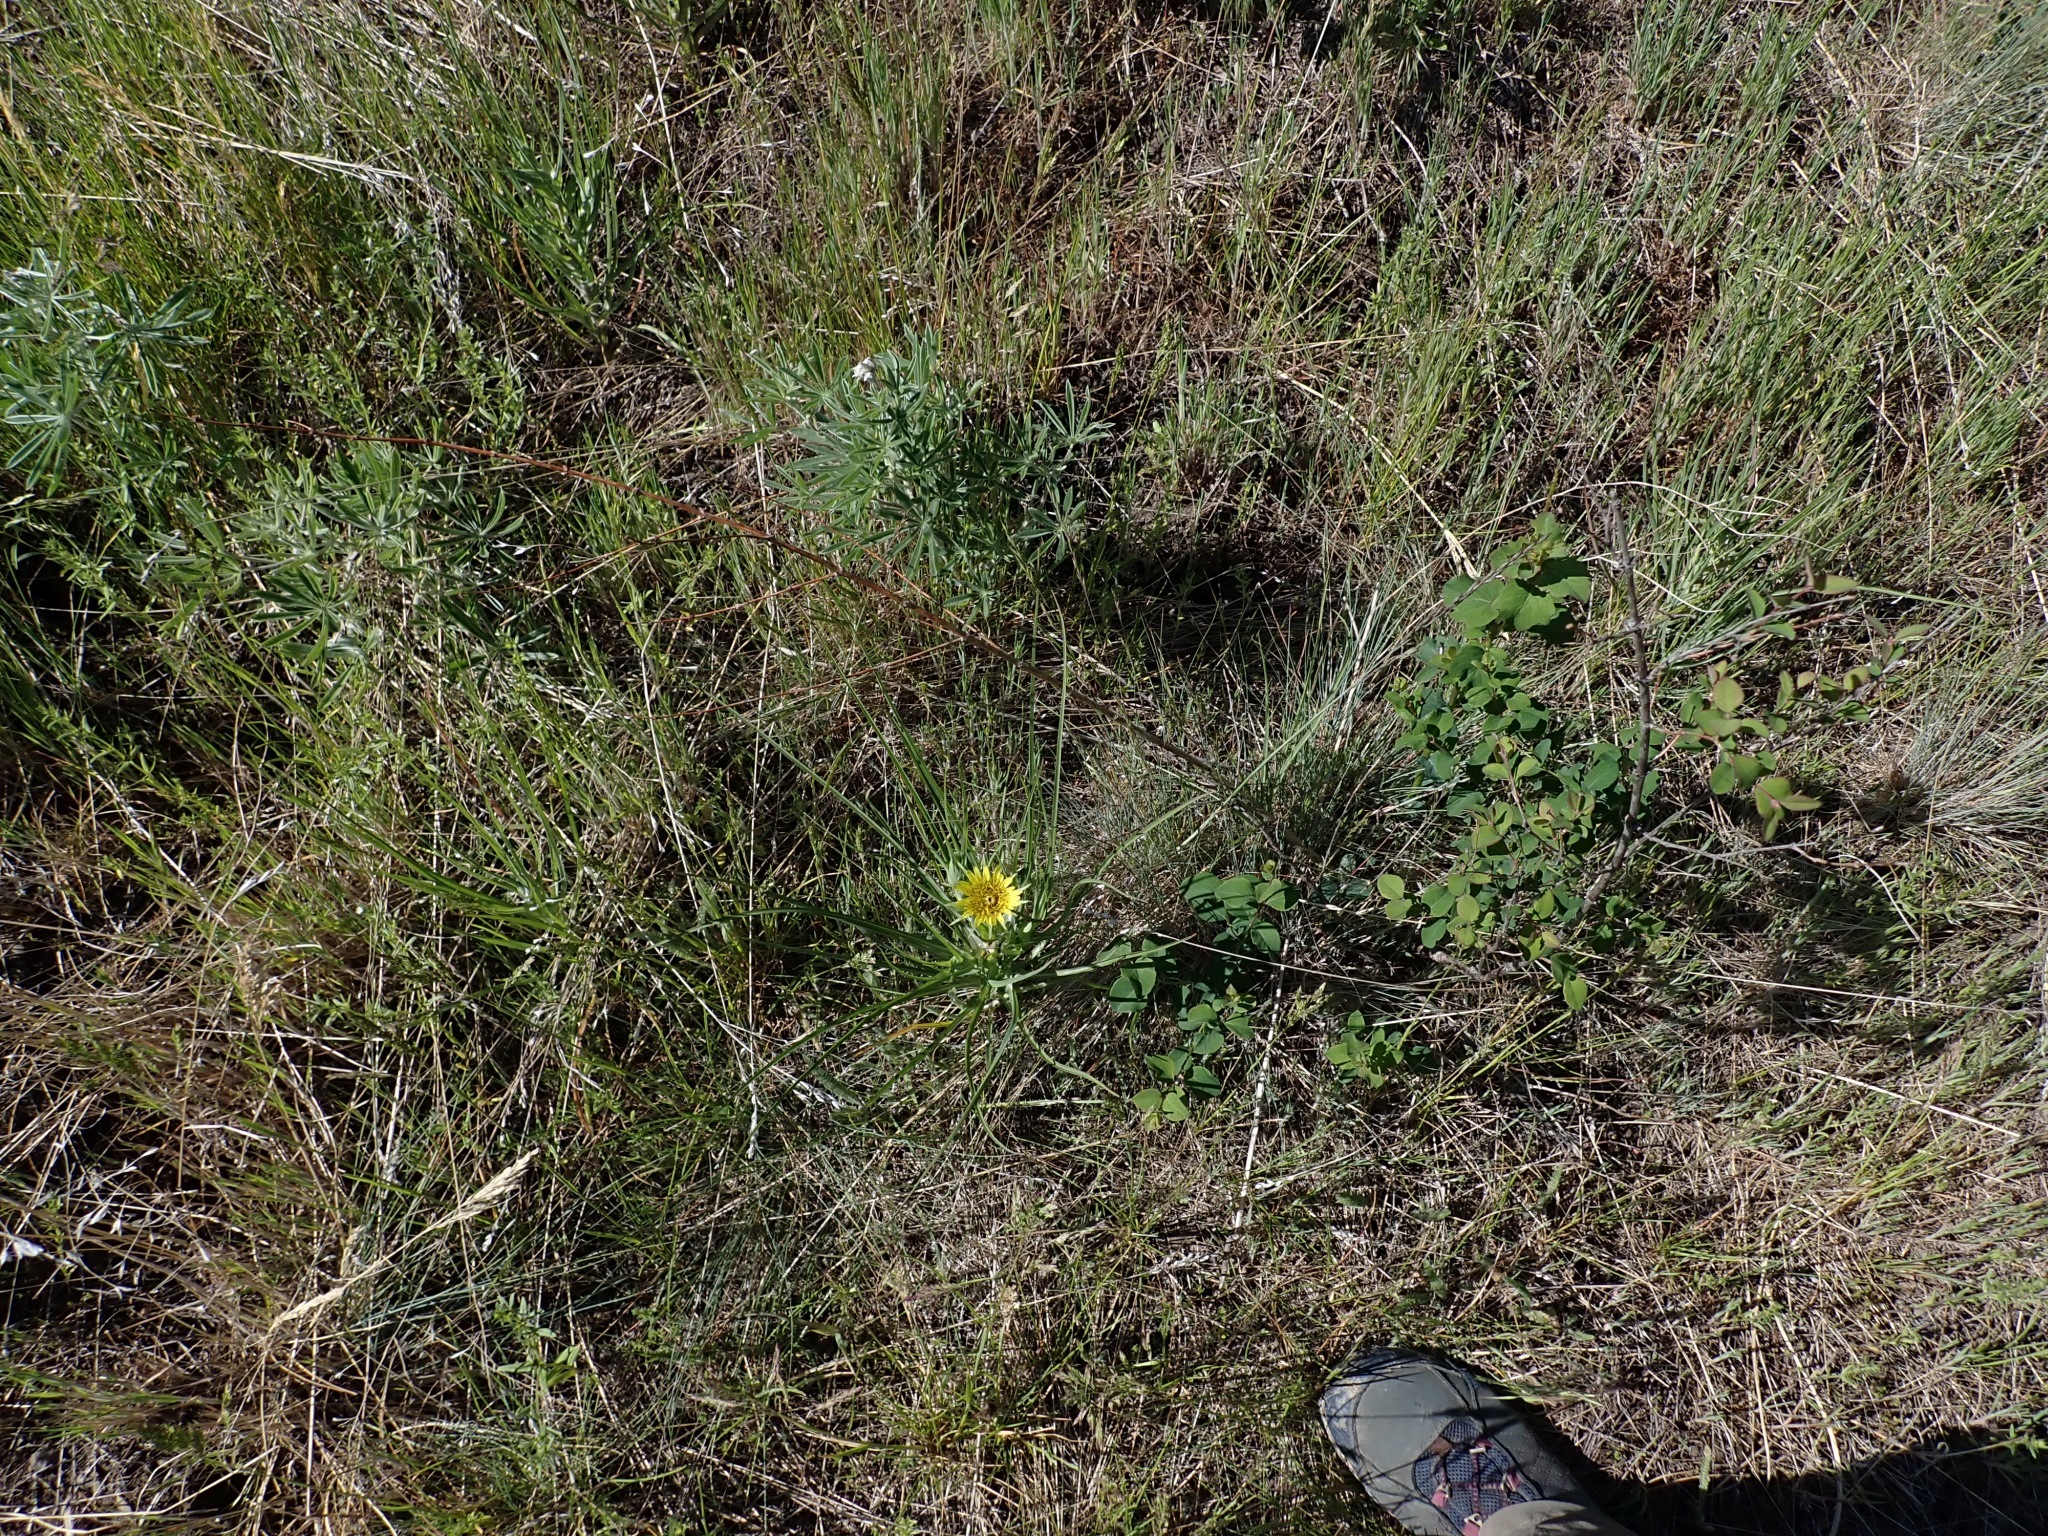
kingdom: Plantae
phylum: Tracheophyta
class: Magnoliopsida
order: Asterales
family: Asteraceae
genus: Tragopogon
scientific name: Tragopogon dubius
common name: Yellow salsify
